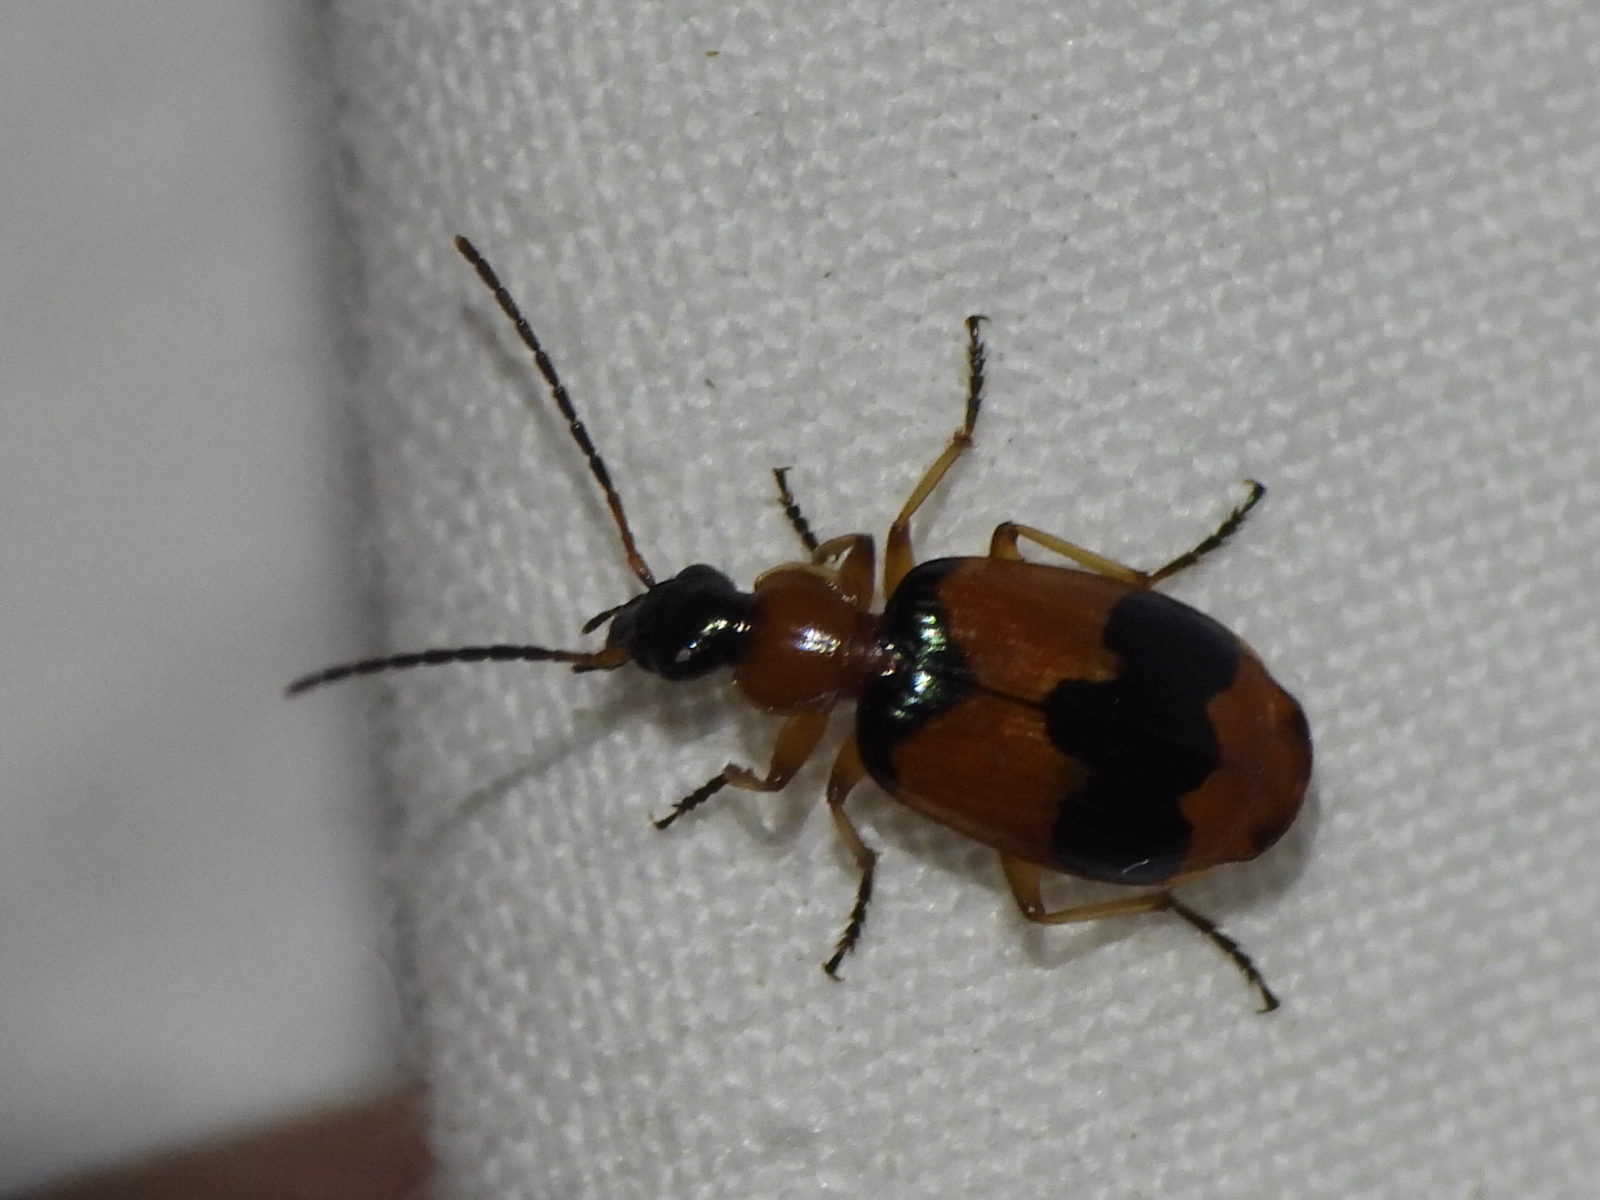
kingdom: Animalia
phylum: Arthropoda
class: Insecta
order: Coleoptera
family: Carabidae
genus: Lebia
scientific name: Lebia pulchella
